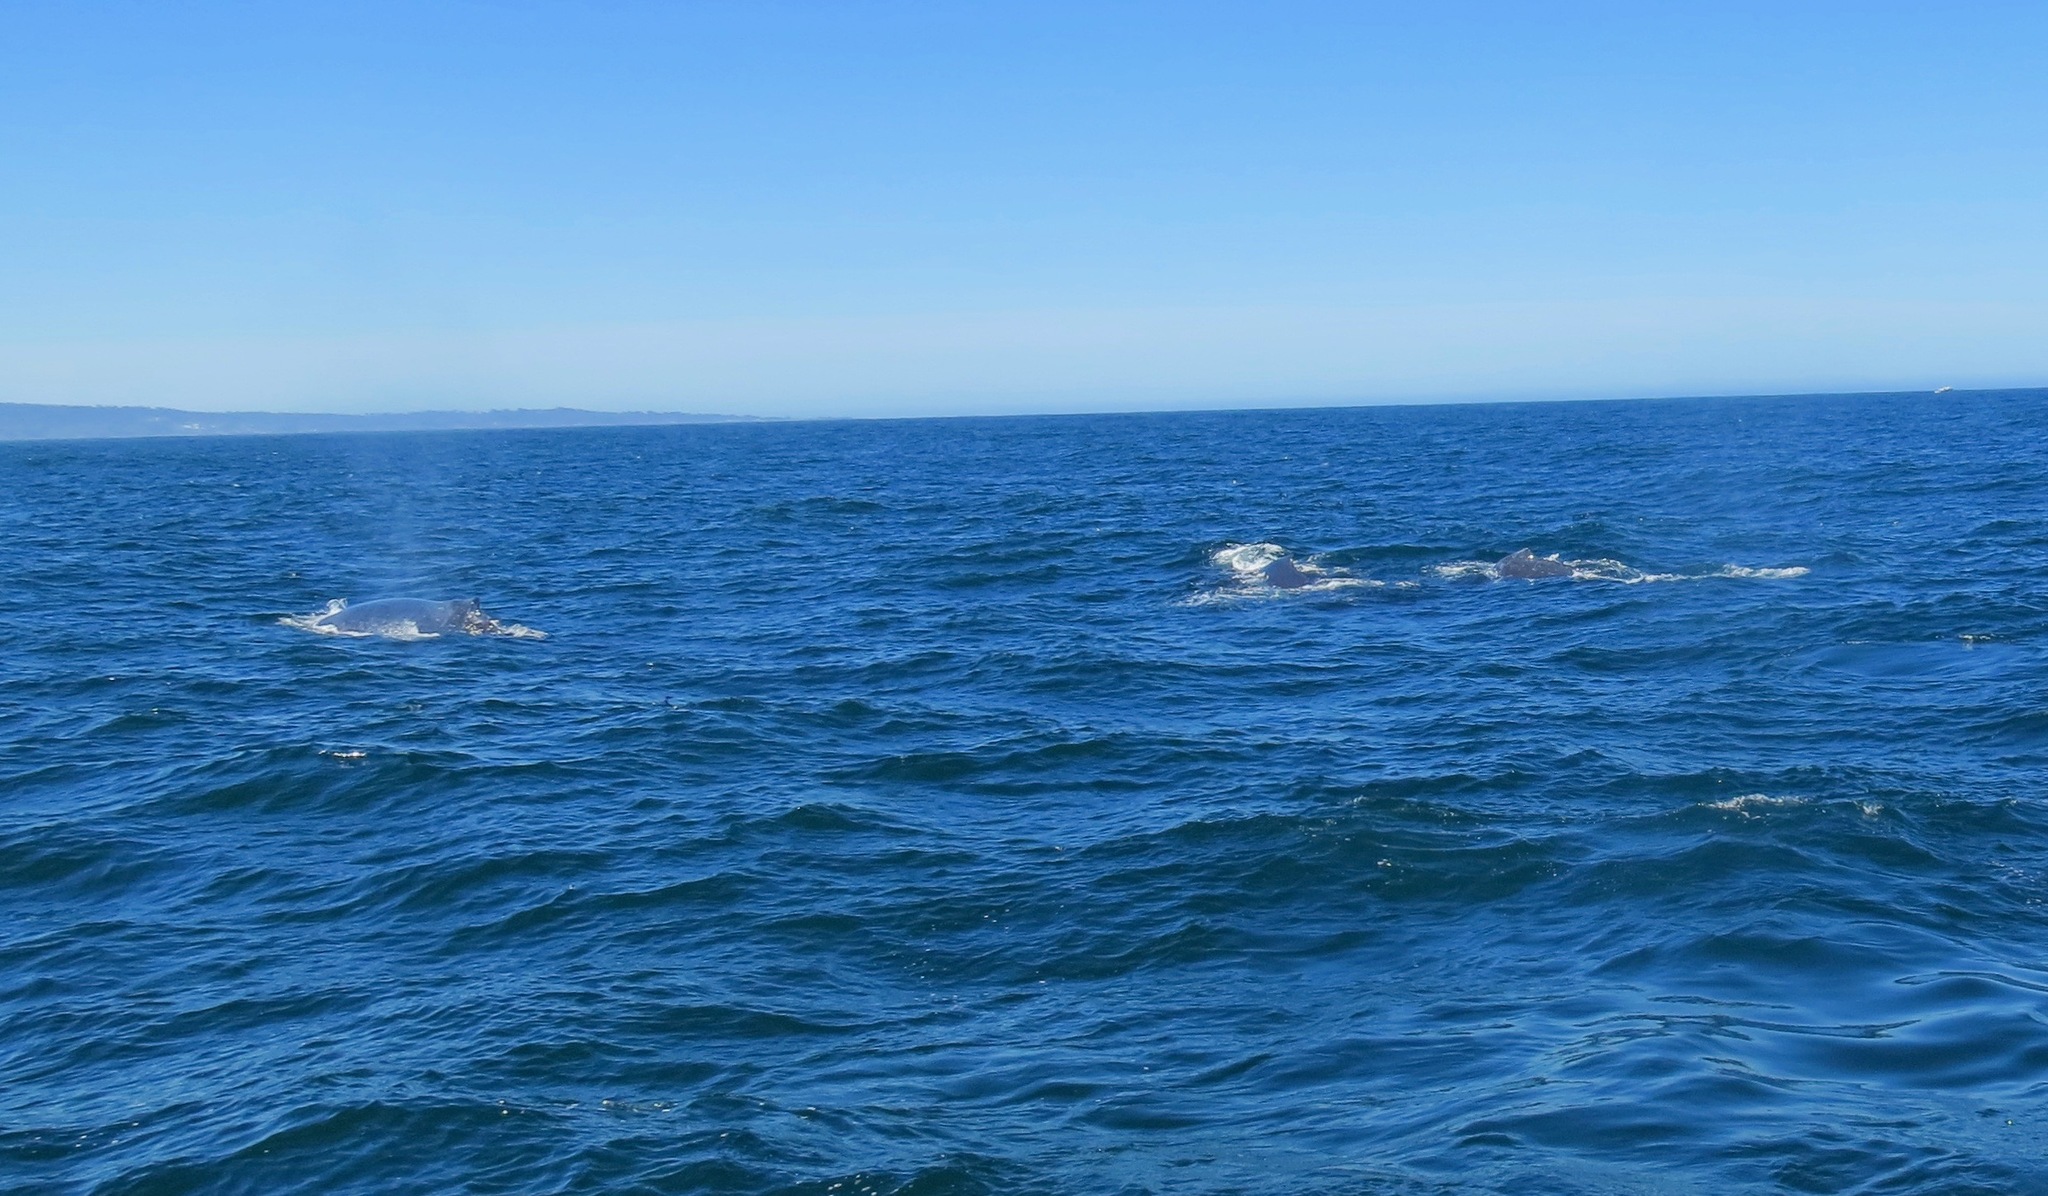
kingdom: Animalia
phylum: Chordata
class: Mammalia
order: Cetacea
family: Balaenopteridae
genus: Megaptera
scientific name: Megaptera novaeangliae
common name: Humpback whale
